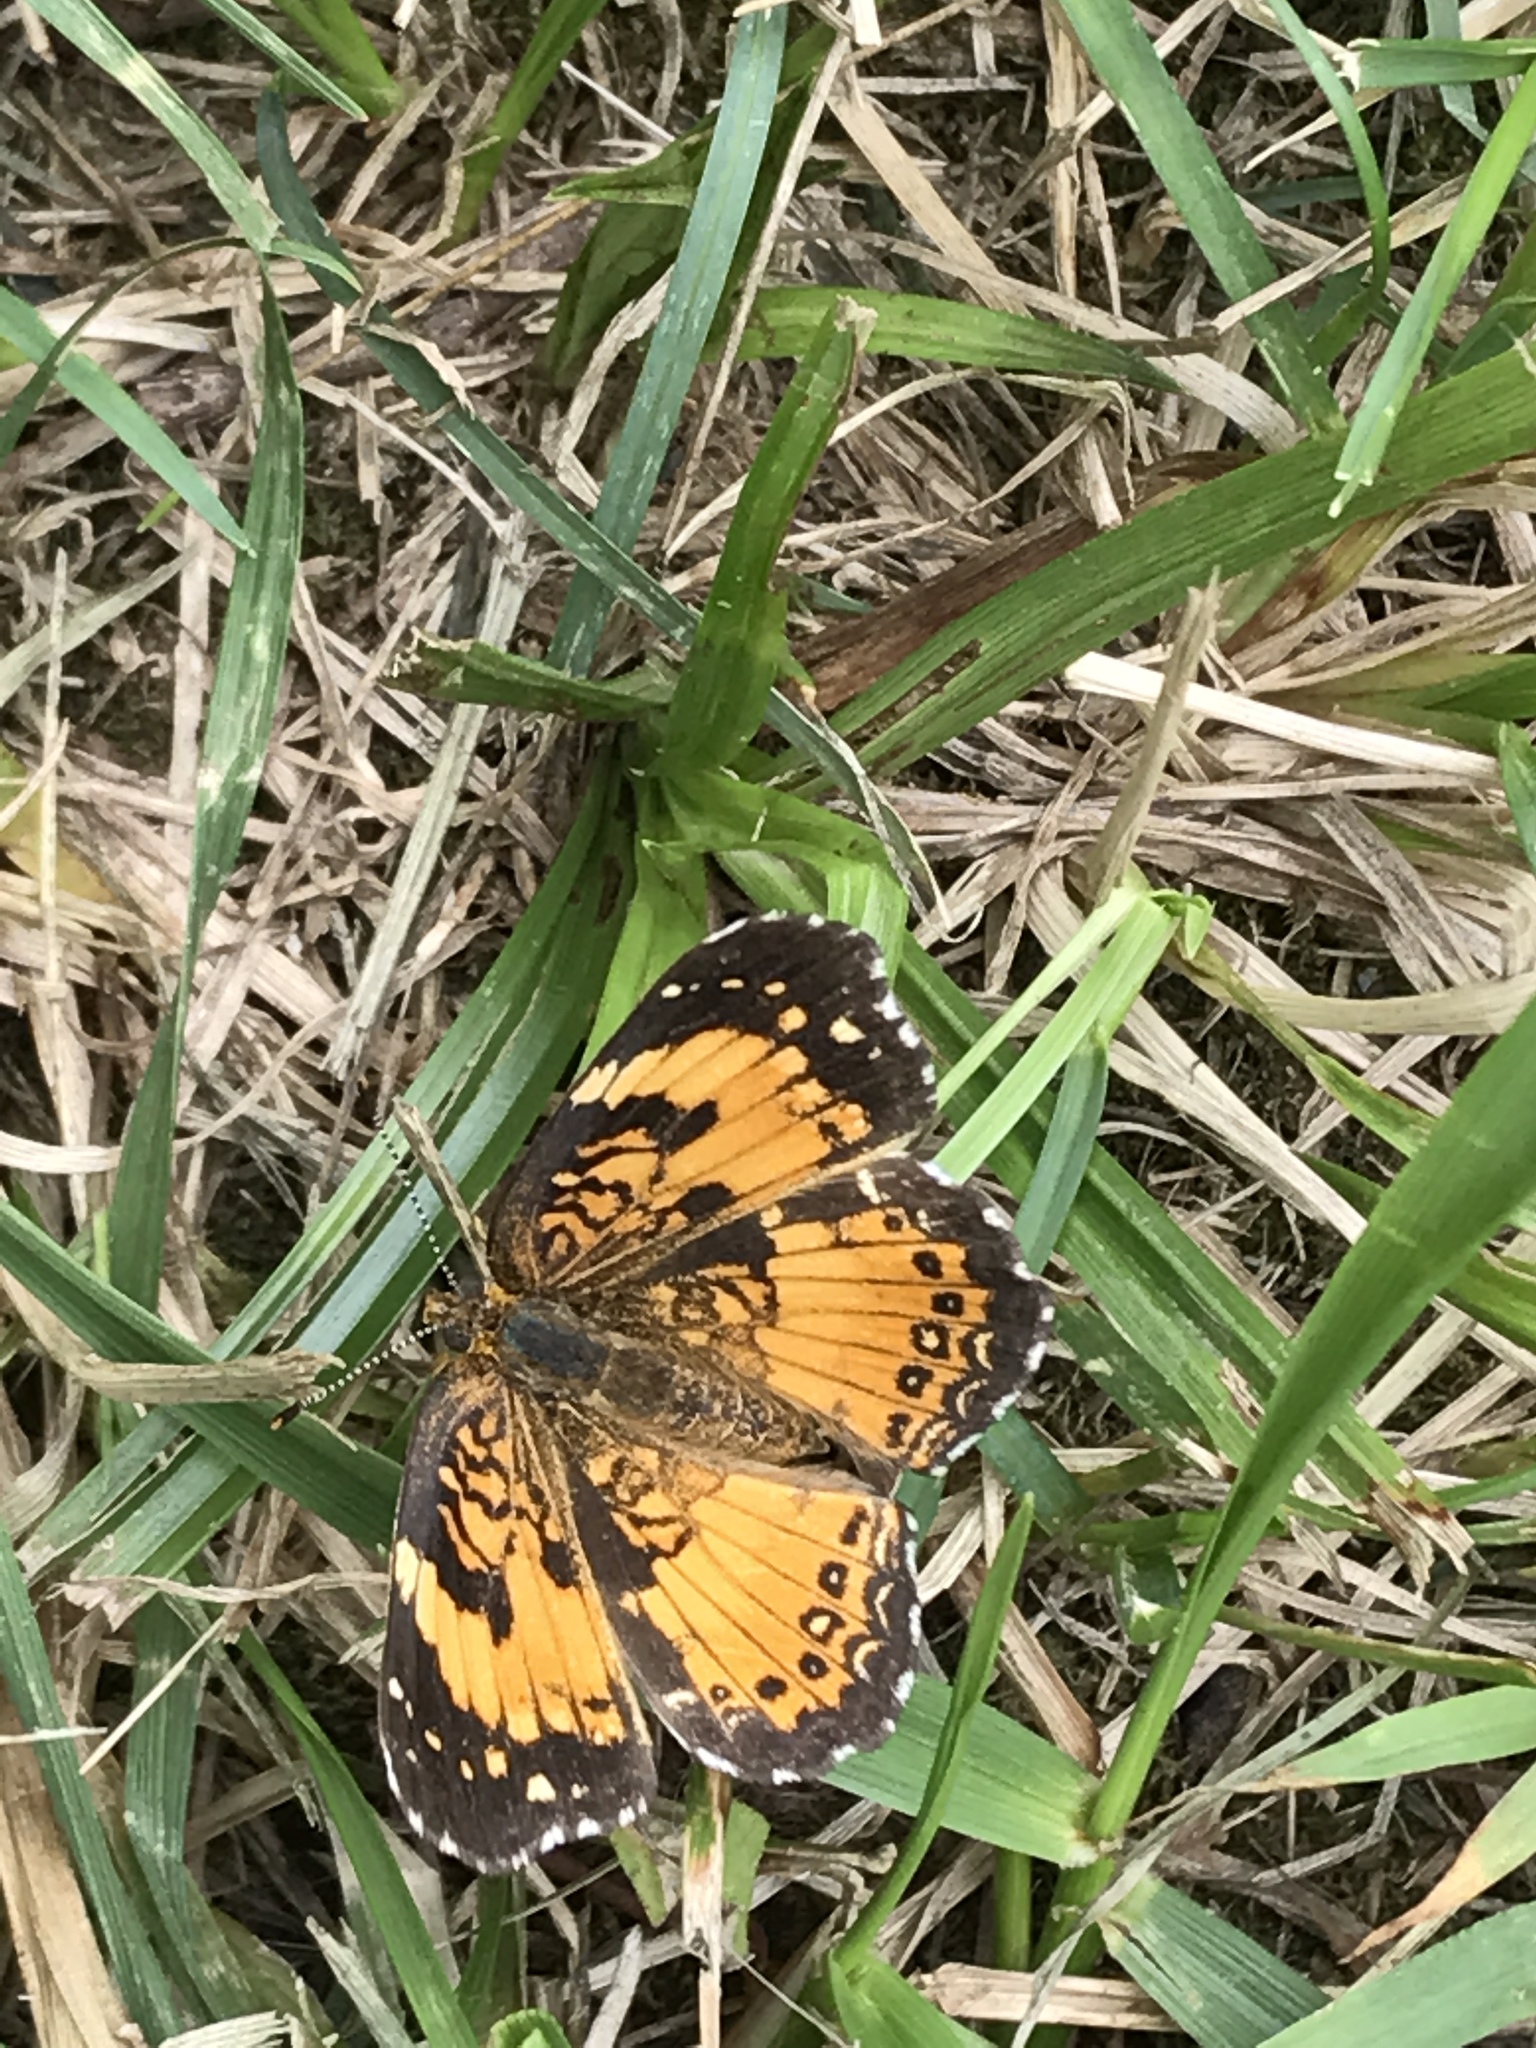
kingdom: Animalia
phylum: Arthropoda
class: Insecta
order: Lepidoptera
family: Nymphalidae
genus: Chlosyne
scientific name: Chlosyne nycteis
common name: Silvery checkerspot
